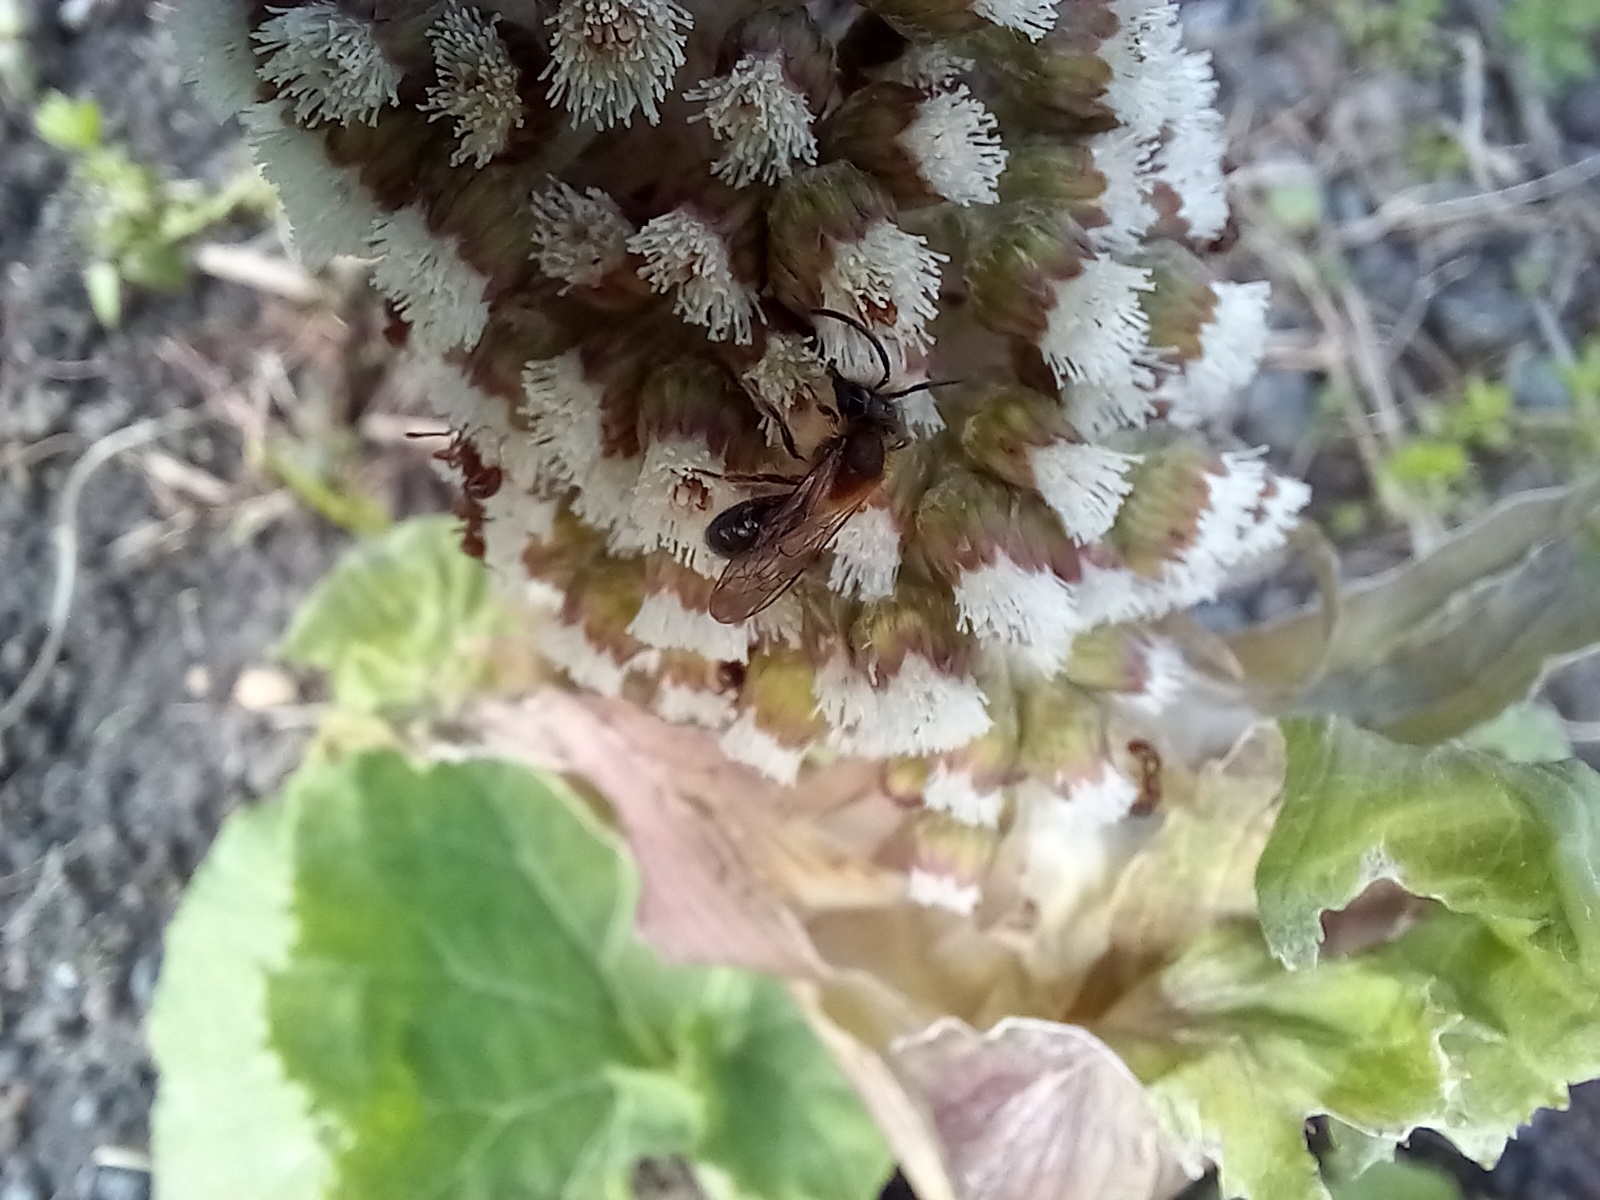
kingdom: Plantae
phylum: Tracheophyta
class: Magnoliopsida
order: Asterales
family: Asteraceae
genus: Petasites
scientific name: Petasites hybridus
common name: Butterbur
